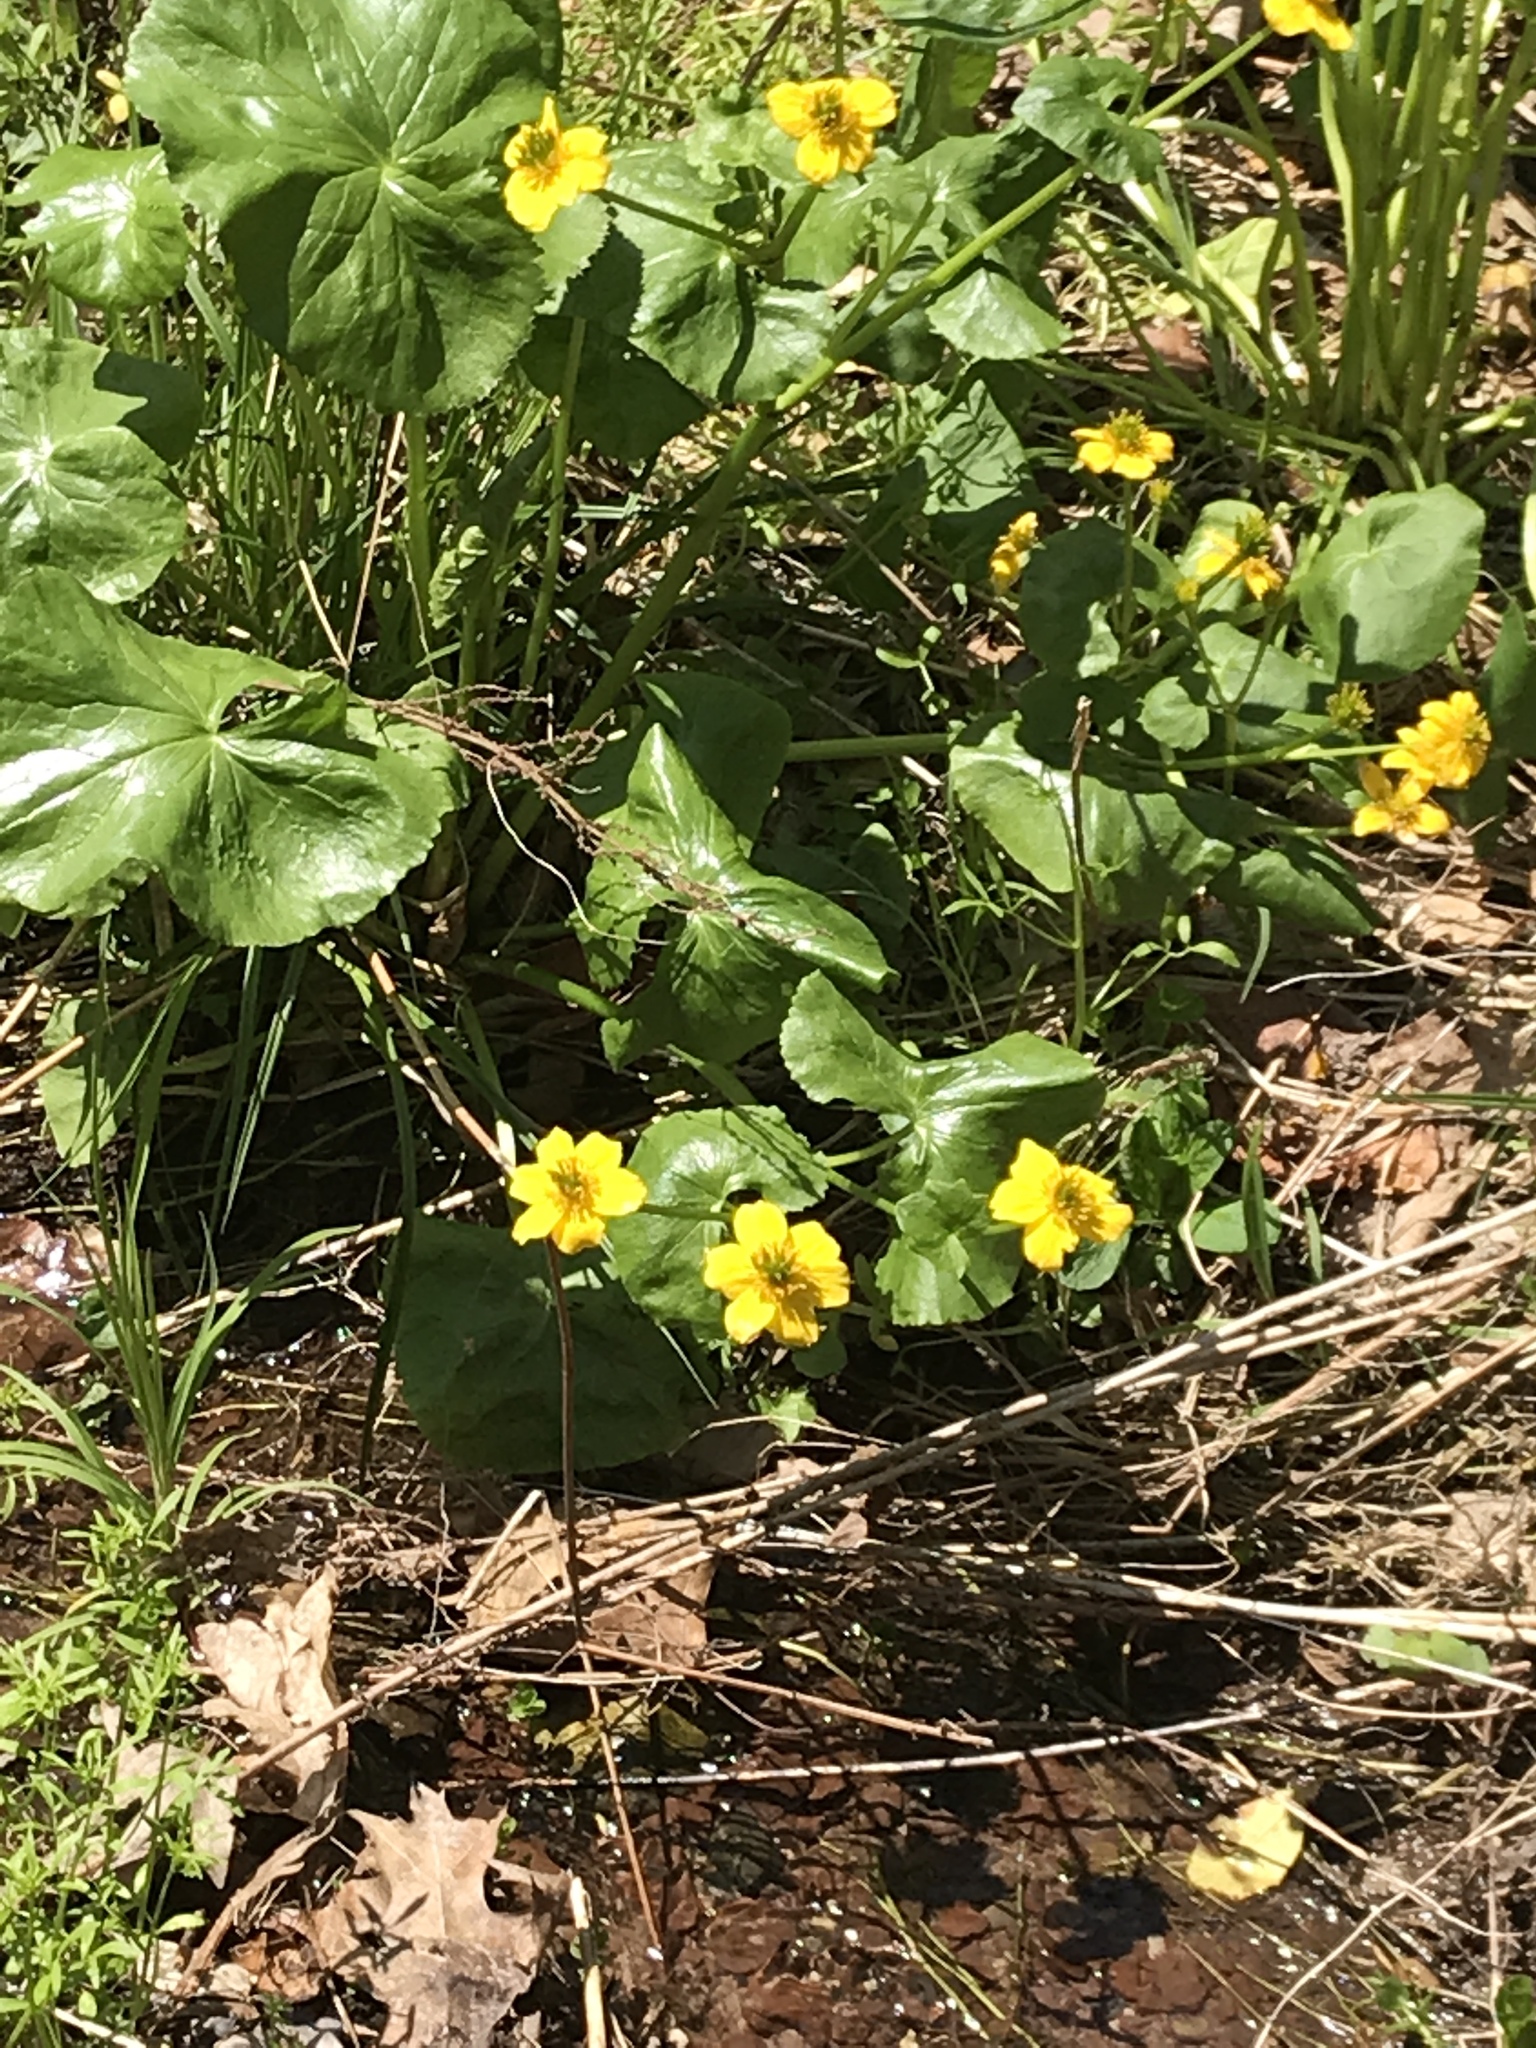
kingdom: Plantae
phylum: Tracheophyta
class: Magnoliopsida
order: Ranunculales
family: Ranunculaceae
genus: Caltha
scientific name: Caltha palustris
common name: Marsh marigold
